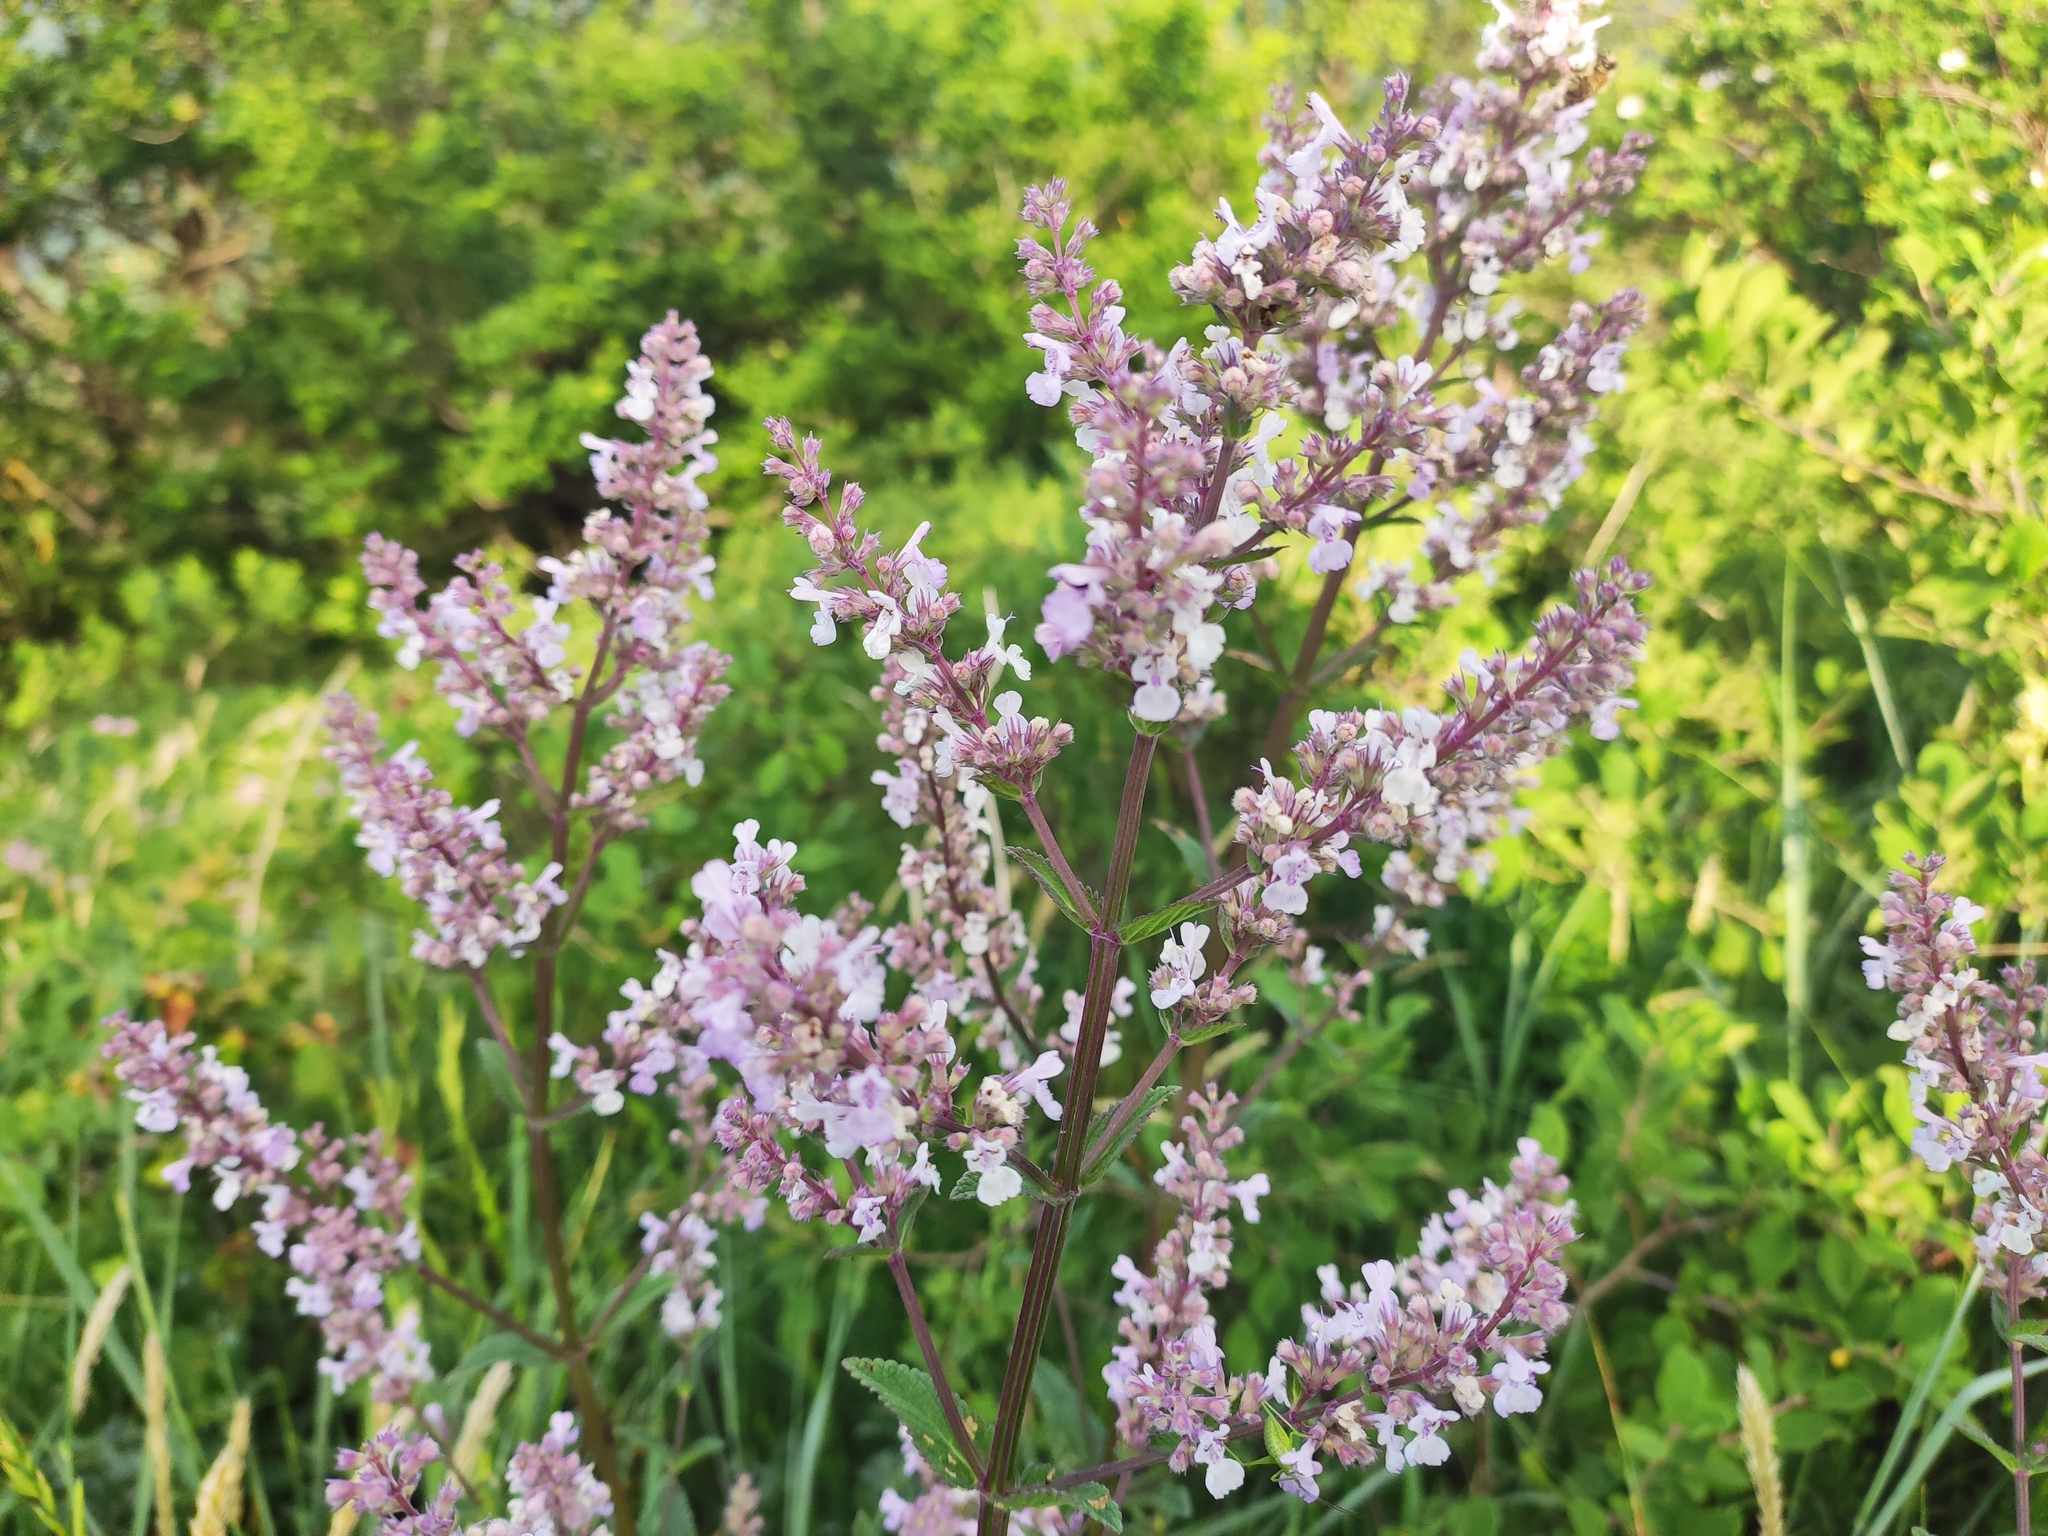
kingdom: Plantae
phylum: Tracheophyta
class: Magnoliopsida
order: Lamiales
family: Lamiaceae
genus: Nepeta
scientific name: Nepeta nuda
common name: Hairless catmint
